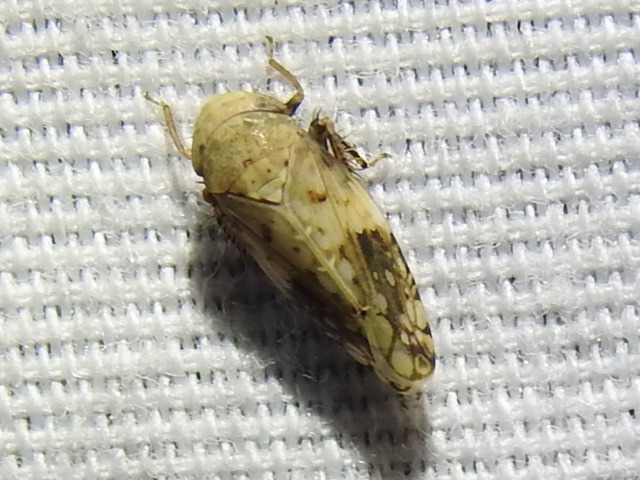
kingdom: Animalia
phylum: Arthropoda
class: Insecta
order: Hemiptera
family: Cicadellidae
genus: Menosoma
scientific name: Menosoma cinctum
